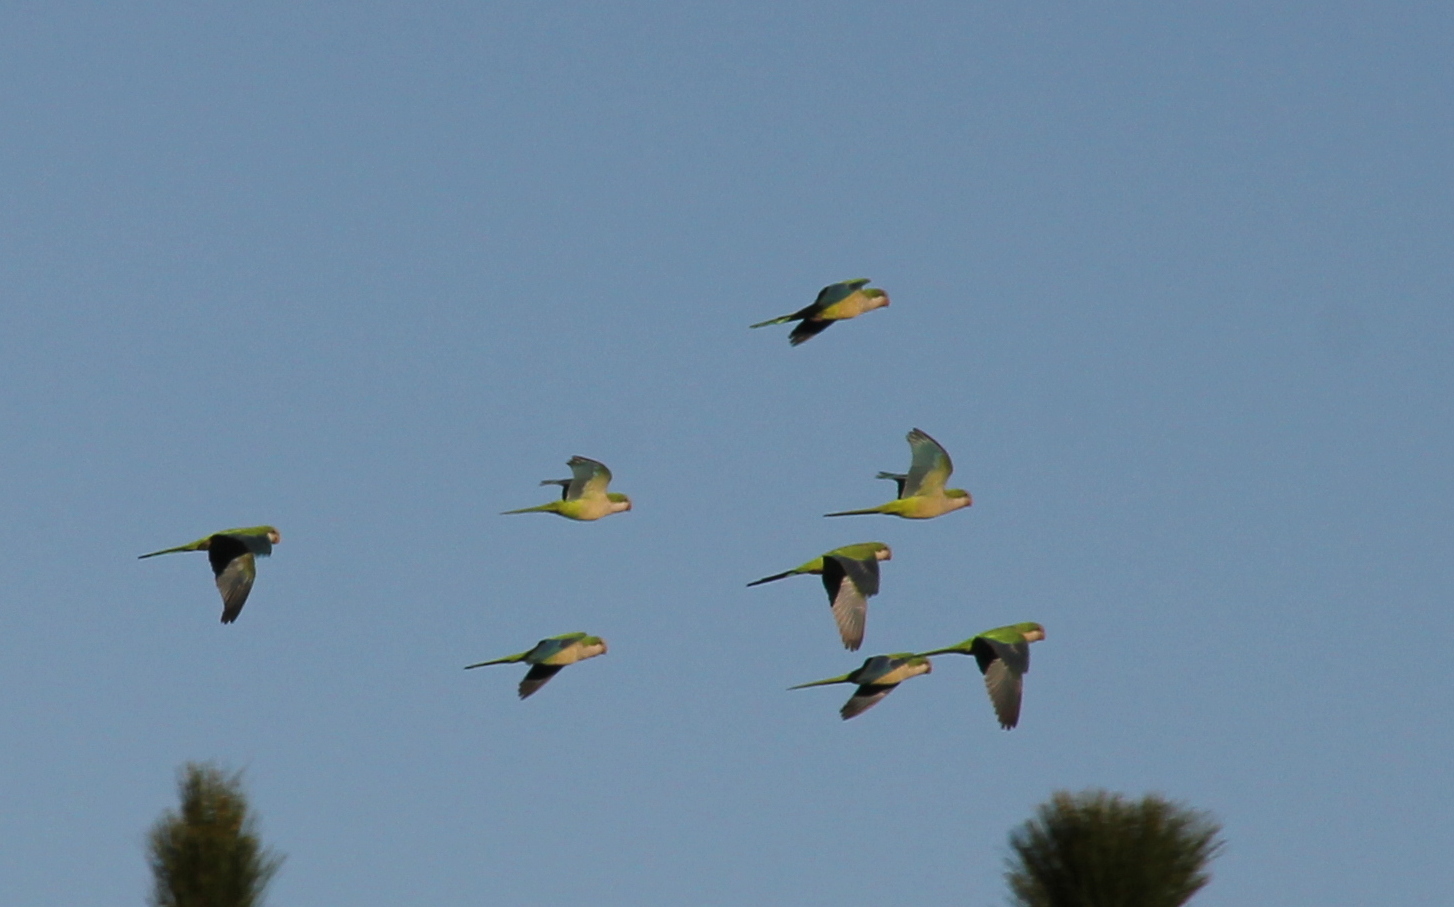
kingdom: Animalia
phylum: Chordata
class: Aves
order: Psittaciformes
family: Psittacidae
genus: Myiopsitta
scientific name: Myiopsitta monachus
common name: Monk parakeet
